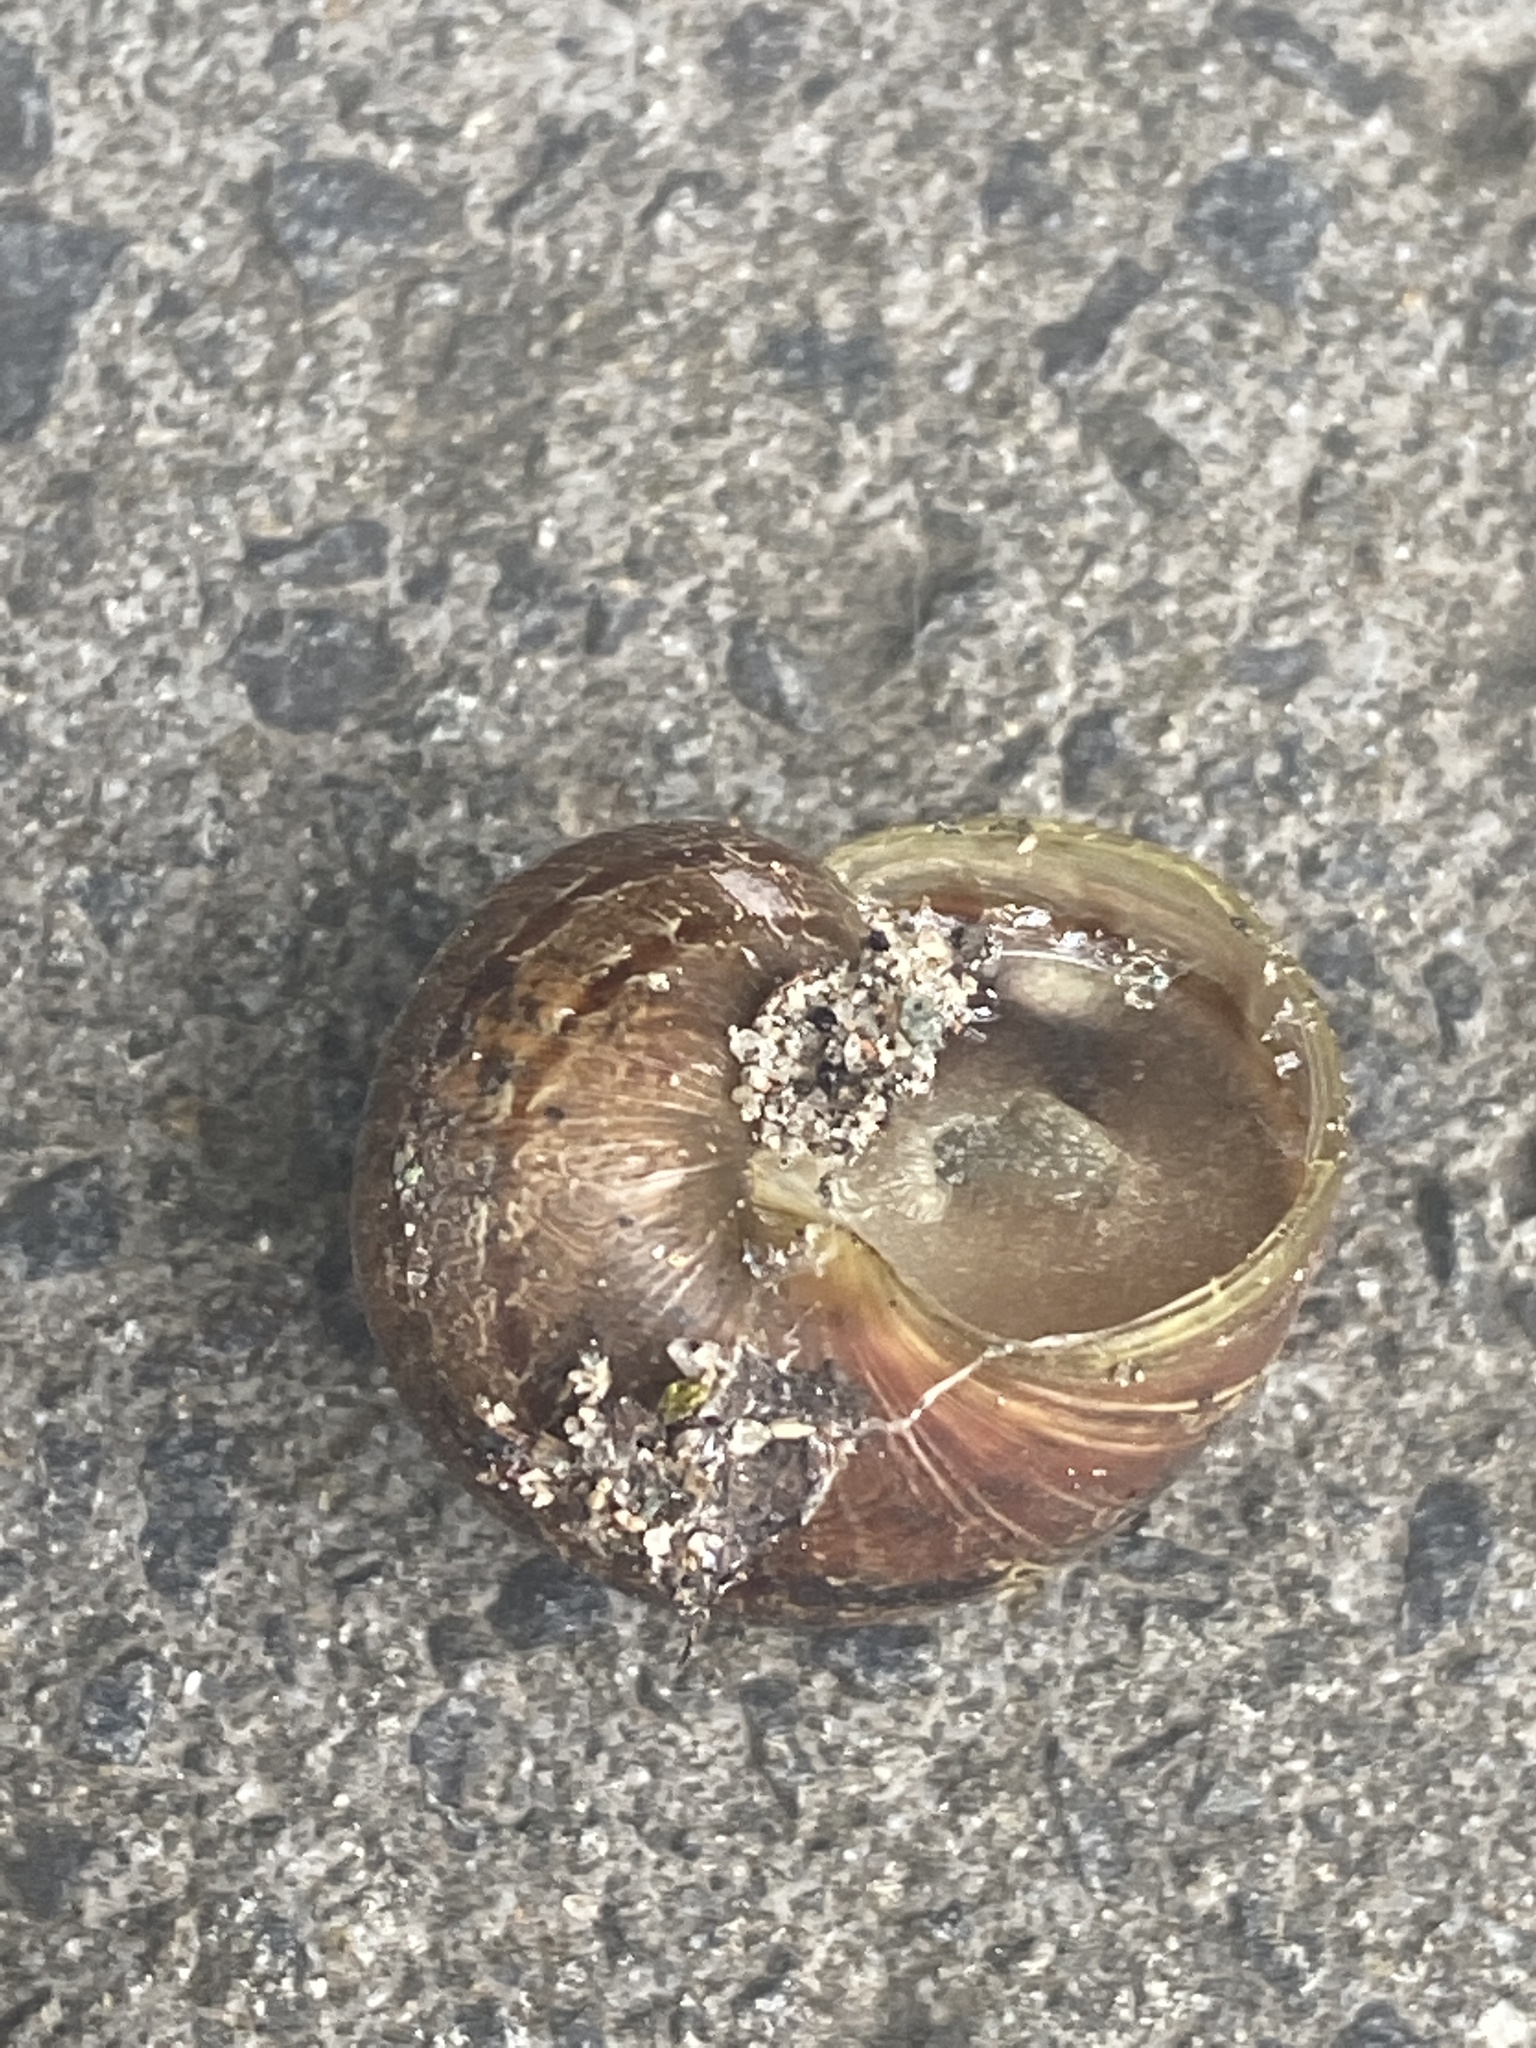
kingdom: Animalia
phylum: Mollusca
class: Gastropoda
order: Stylommatophora
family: Helicidae
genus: Cornu
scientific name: Cornu aspersum
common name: Brown garden snail
